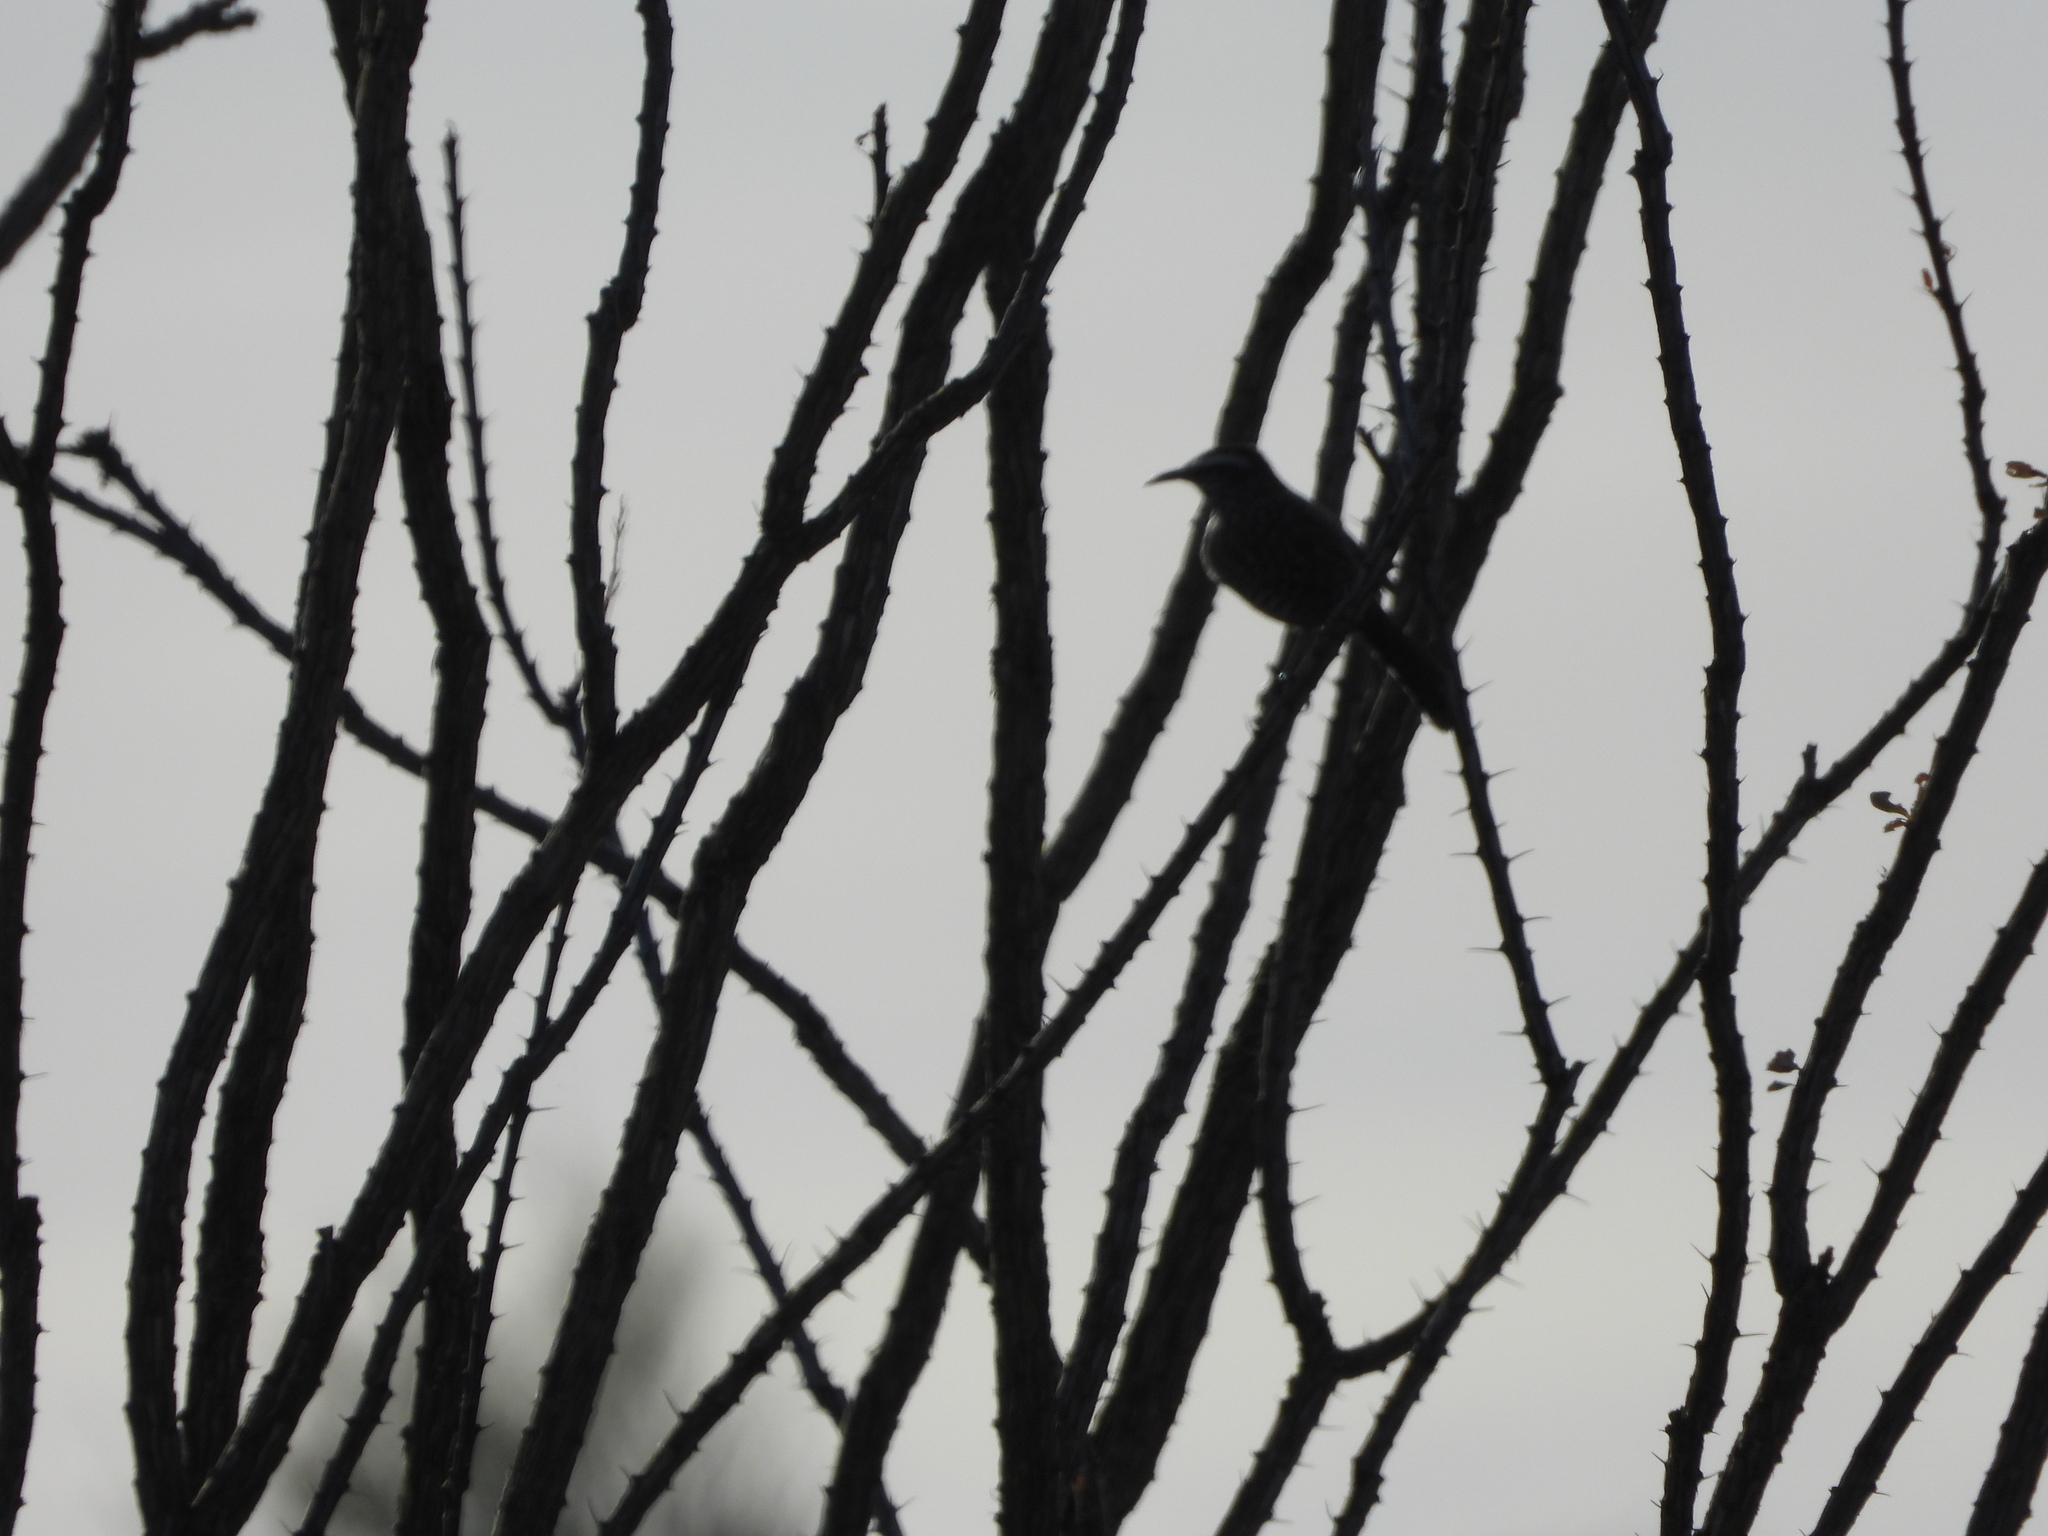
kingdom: Animalia
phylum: Chordata
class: Aves
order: Passeriformes
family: Mimidae
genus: Toxostoma
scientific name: Toxostoma curvirostre
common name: Curve-billed thrasher
